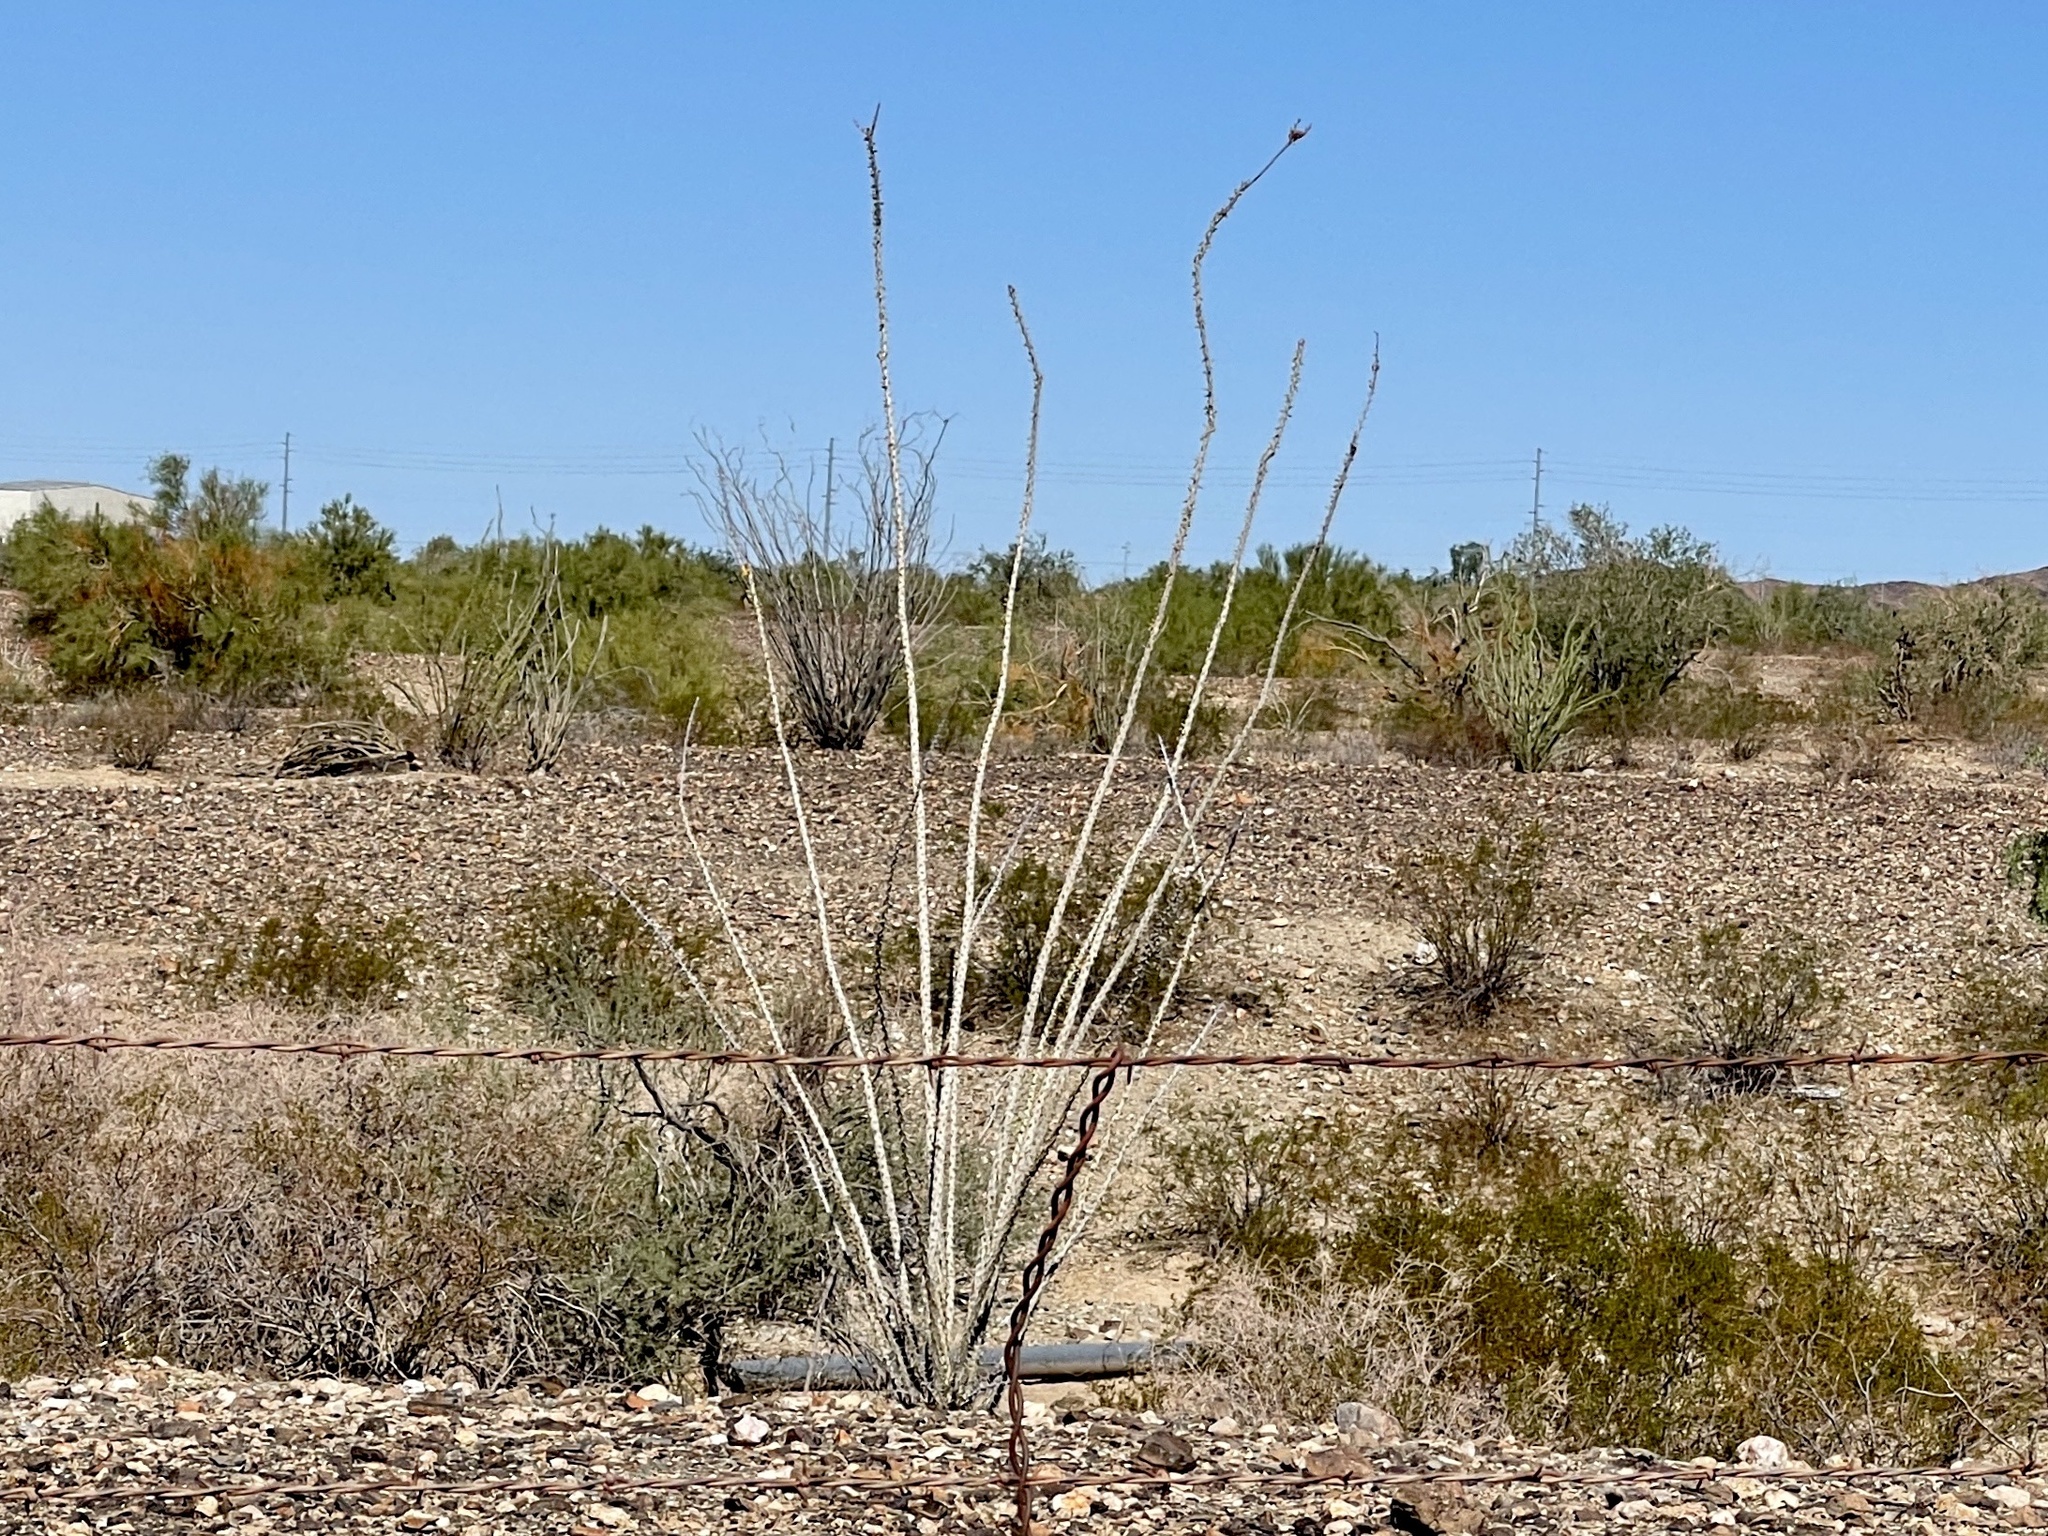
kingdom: Plantae
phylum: Tracheophyta
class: Magnoliopsida
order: Ericales
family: Fouquieriaceae
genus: Fouquieria
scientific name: Fouquieria splendens
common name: Vine-cactus
